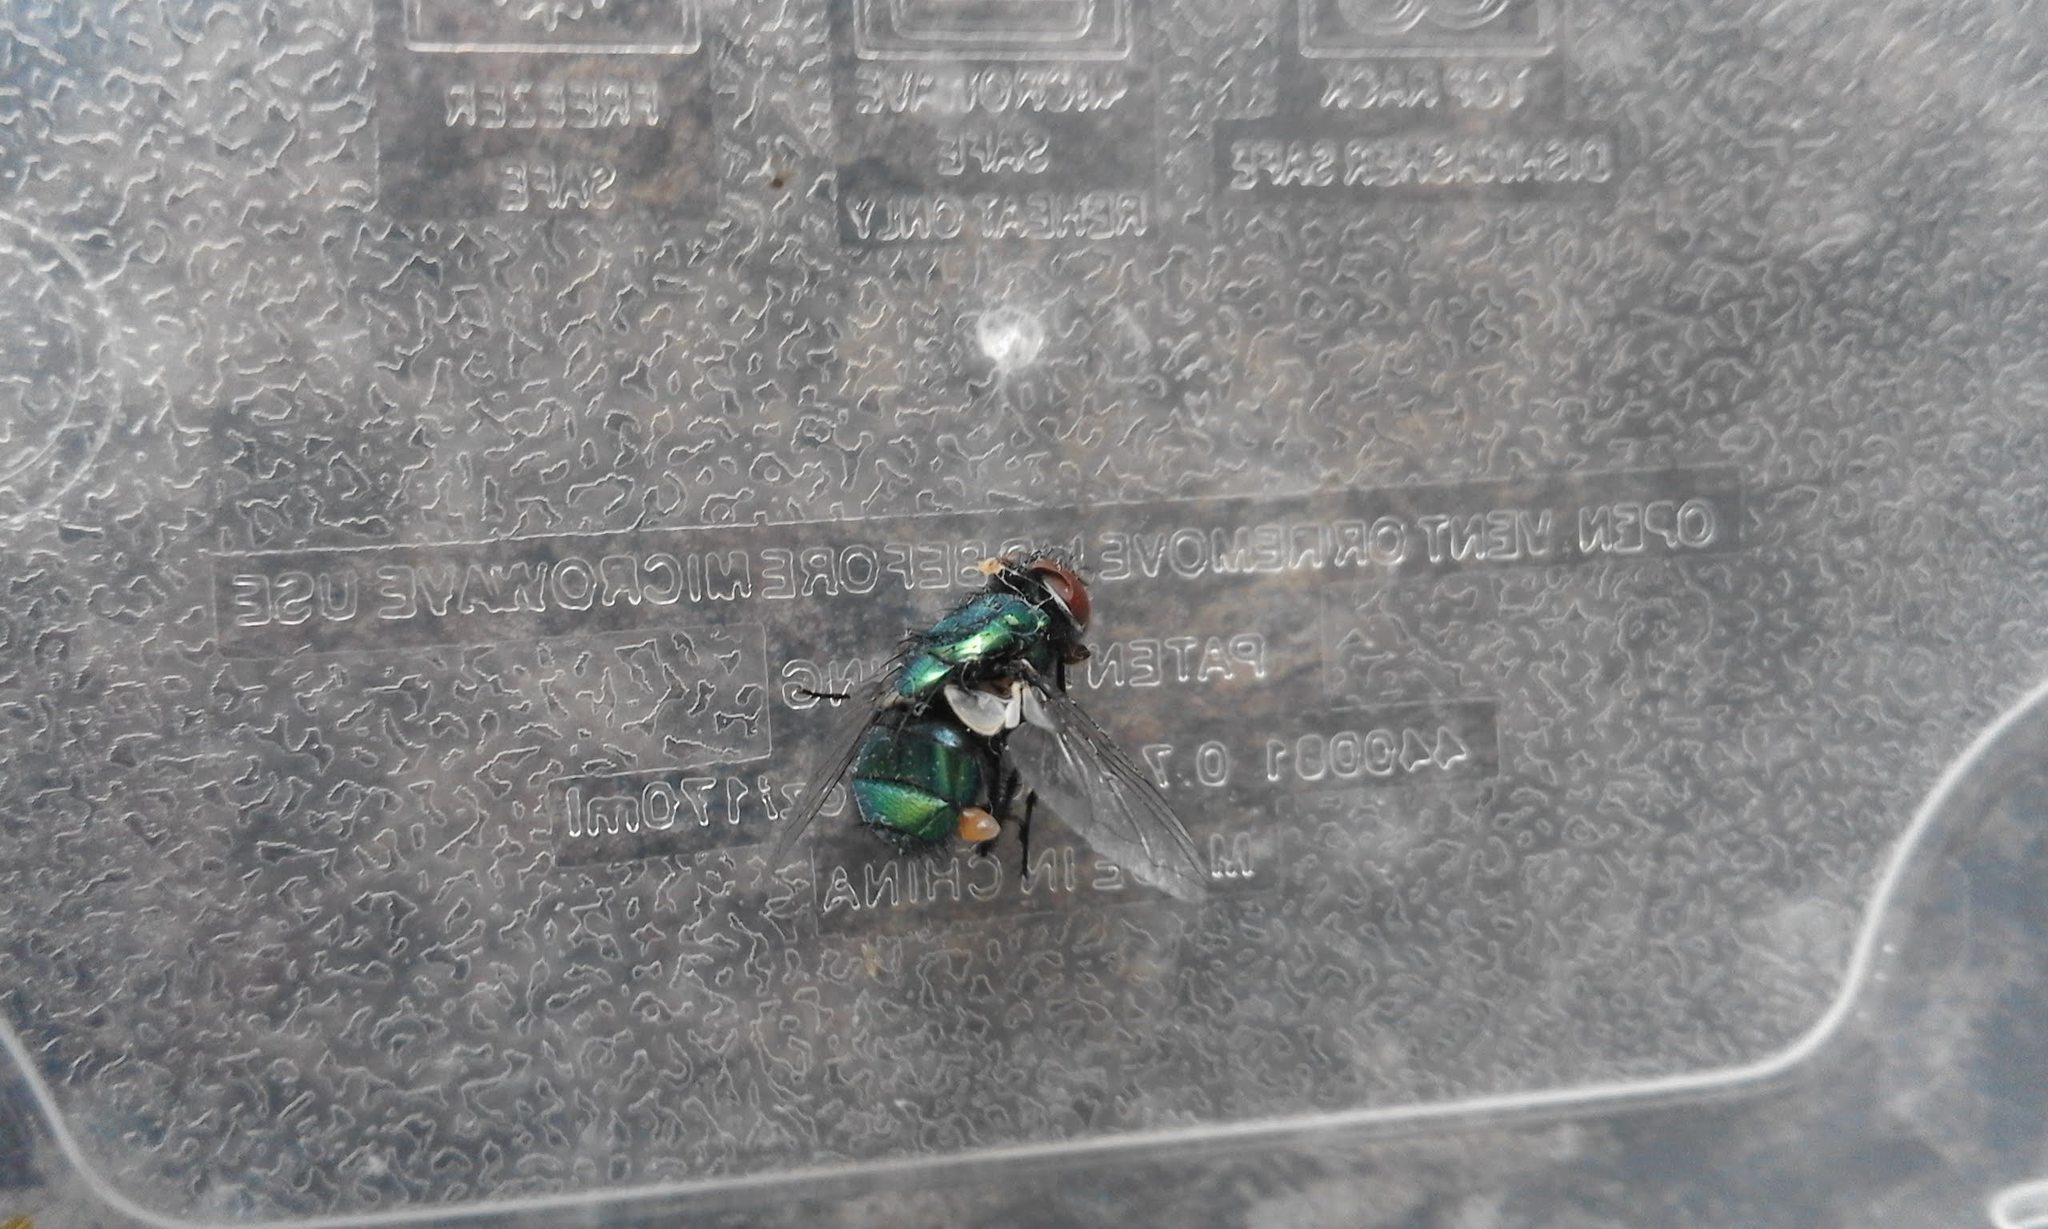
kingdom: Animalia
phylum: Arthropoda
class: Insecta
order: Diptera
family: Calliphoridae
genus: Lucilia
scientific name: Lucilia
